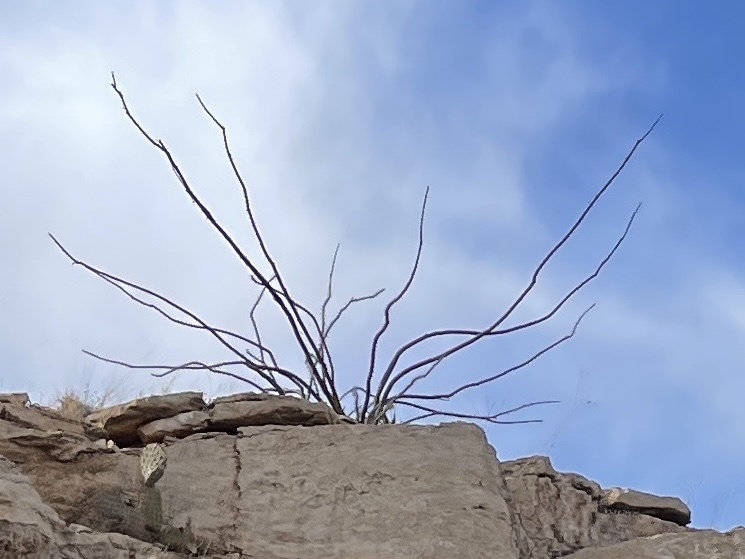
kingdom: Plantae
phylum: Tracheophyta
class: Magnoliopsida
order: Ericales
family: Fouquieriaceae
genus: Fouquieria
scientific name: Fouquieria splendens
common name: Vine-cactus
